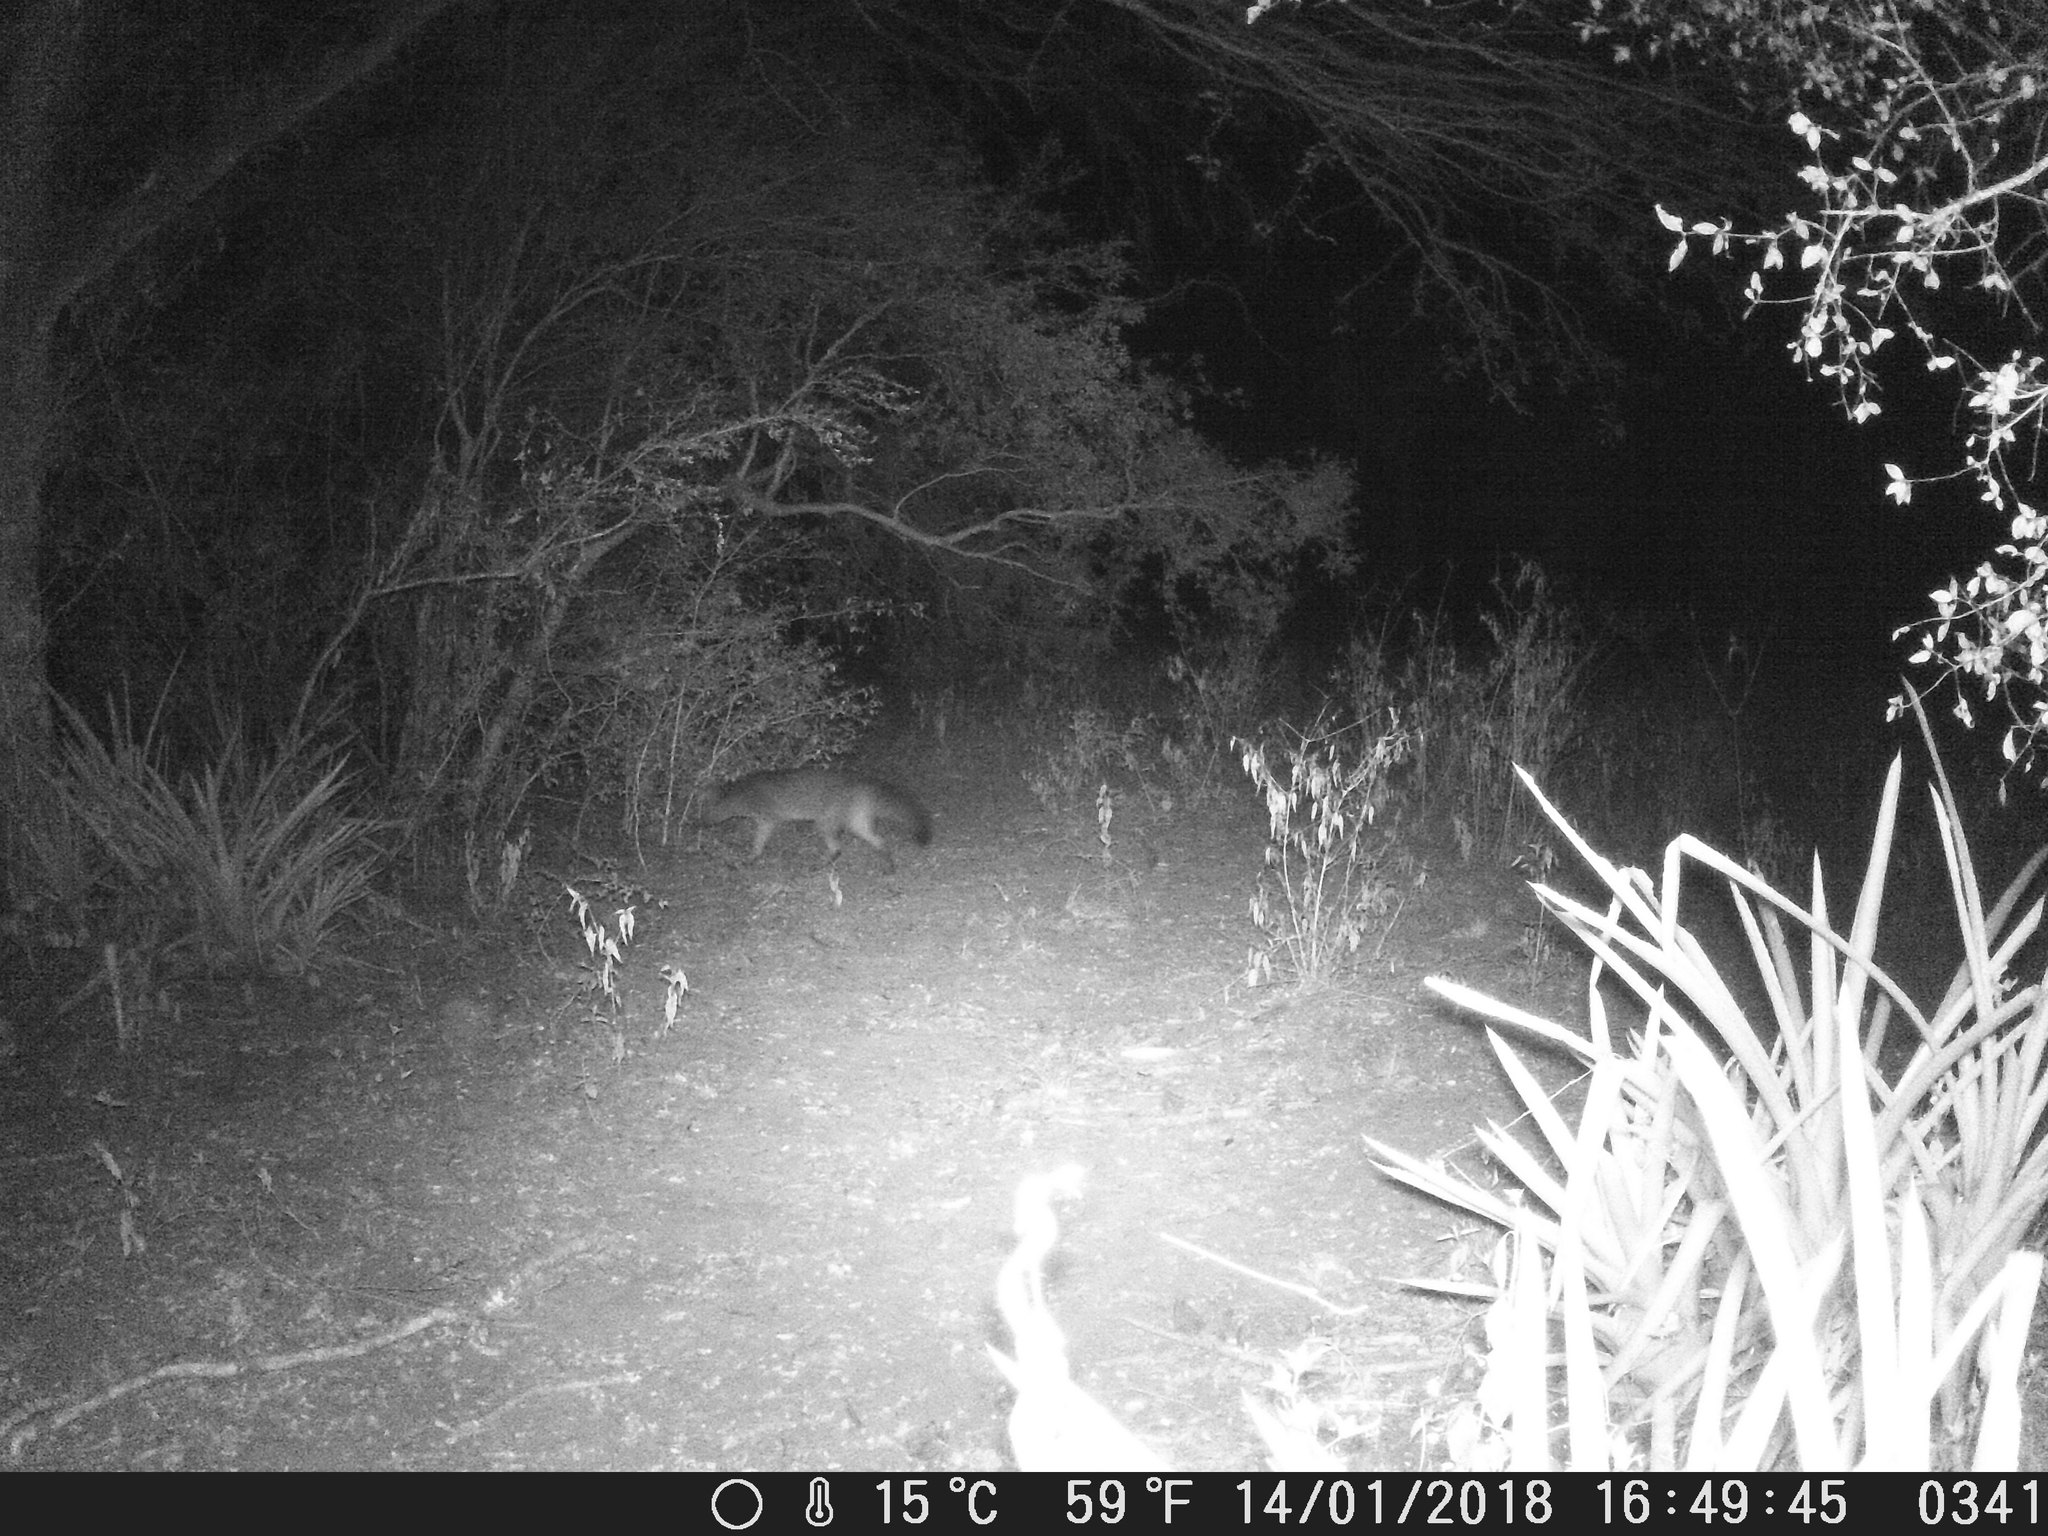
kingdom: Animalia
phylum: Chordata
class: Mammalia
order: Carnivora
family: Canidae
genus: Cerdocyon
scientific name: Cerdocyon thous
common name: Crab-eating fox
